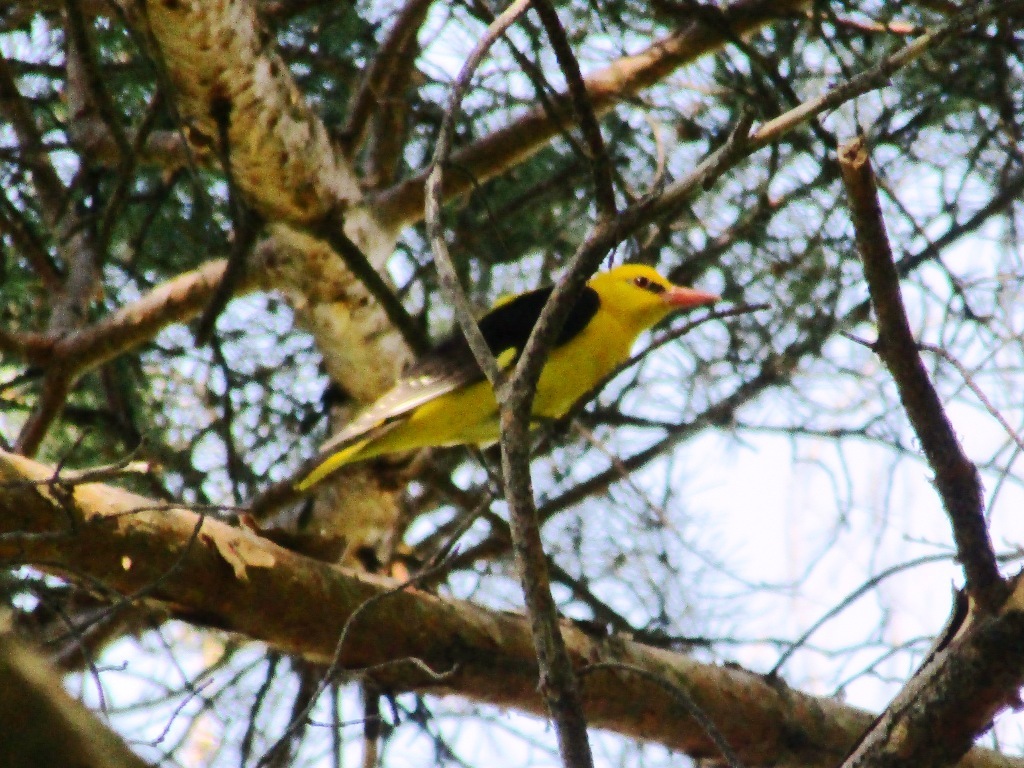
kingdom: Animalia
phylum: Chordata
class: Aves
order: Passeriformes
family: Oriolidae
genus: Oriolus
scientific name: Oriolus oriolus
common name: Eurasian golden oriole
